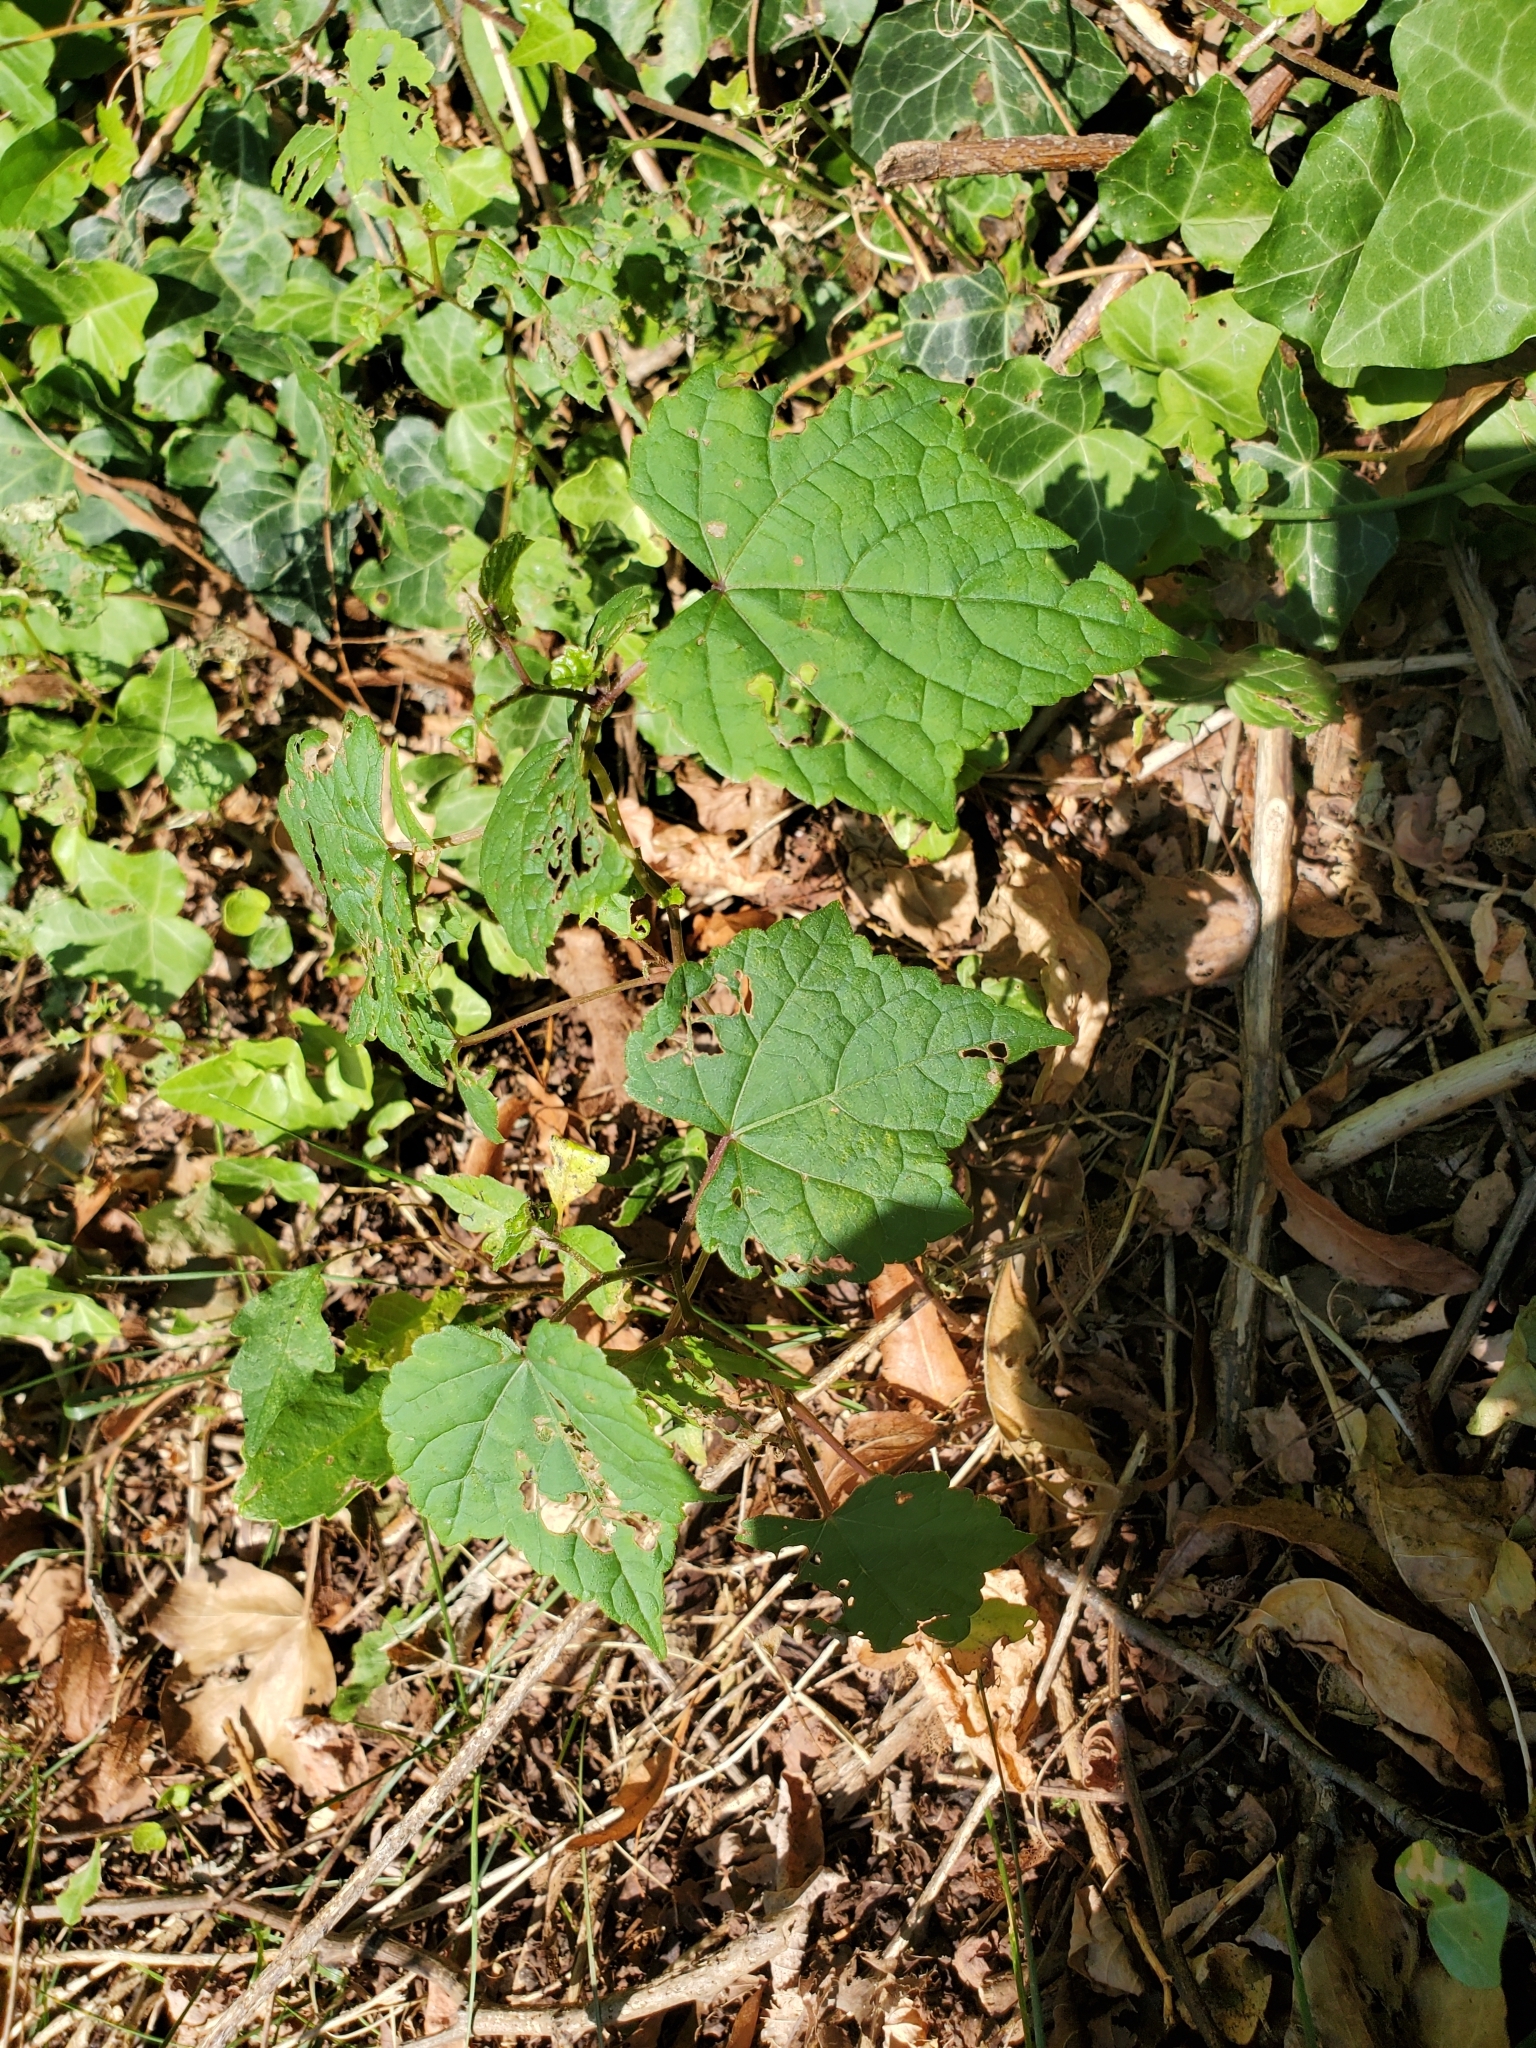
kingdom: Plantae
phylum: Tracheophyta
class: Magnoliopsida
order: Vitales
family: Vitaceae
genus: Ampelopsis
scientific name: Ampelopsis glandulosa
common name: Amur peppervine
